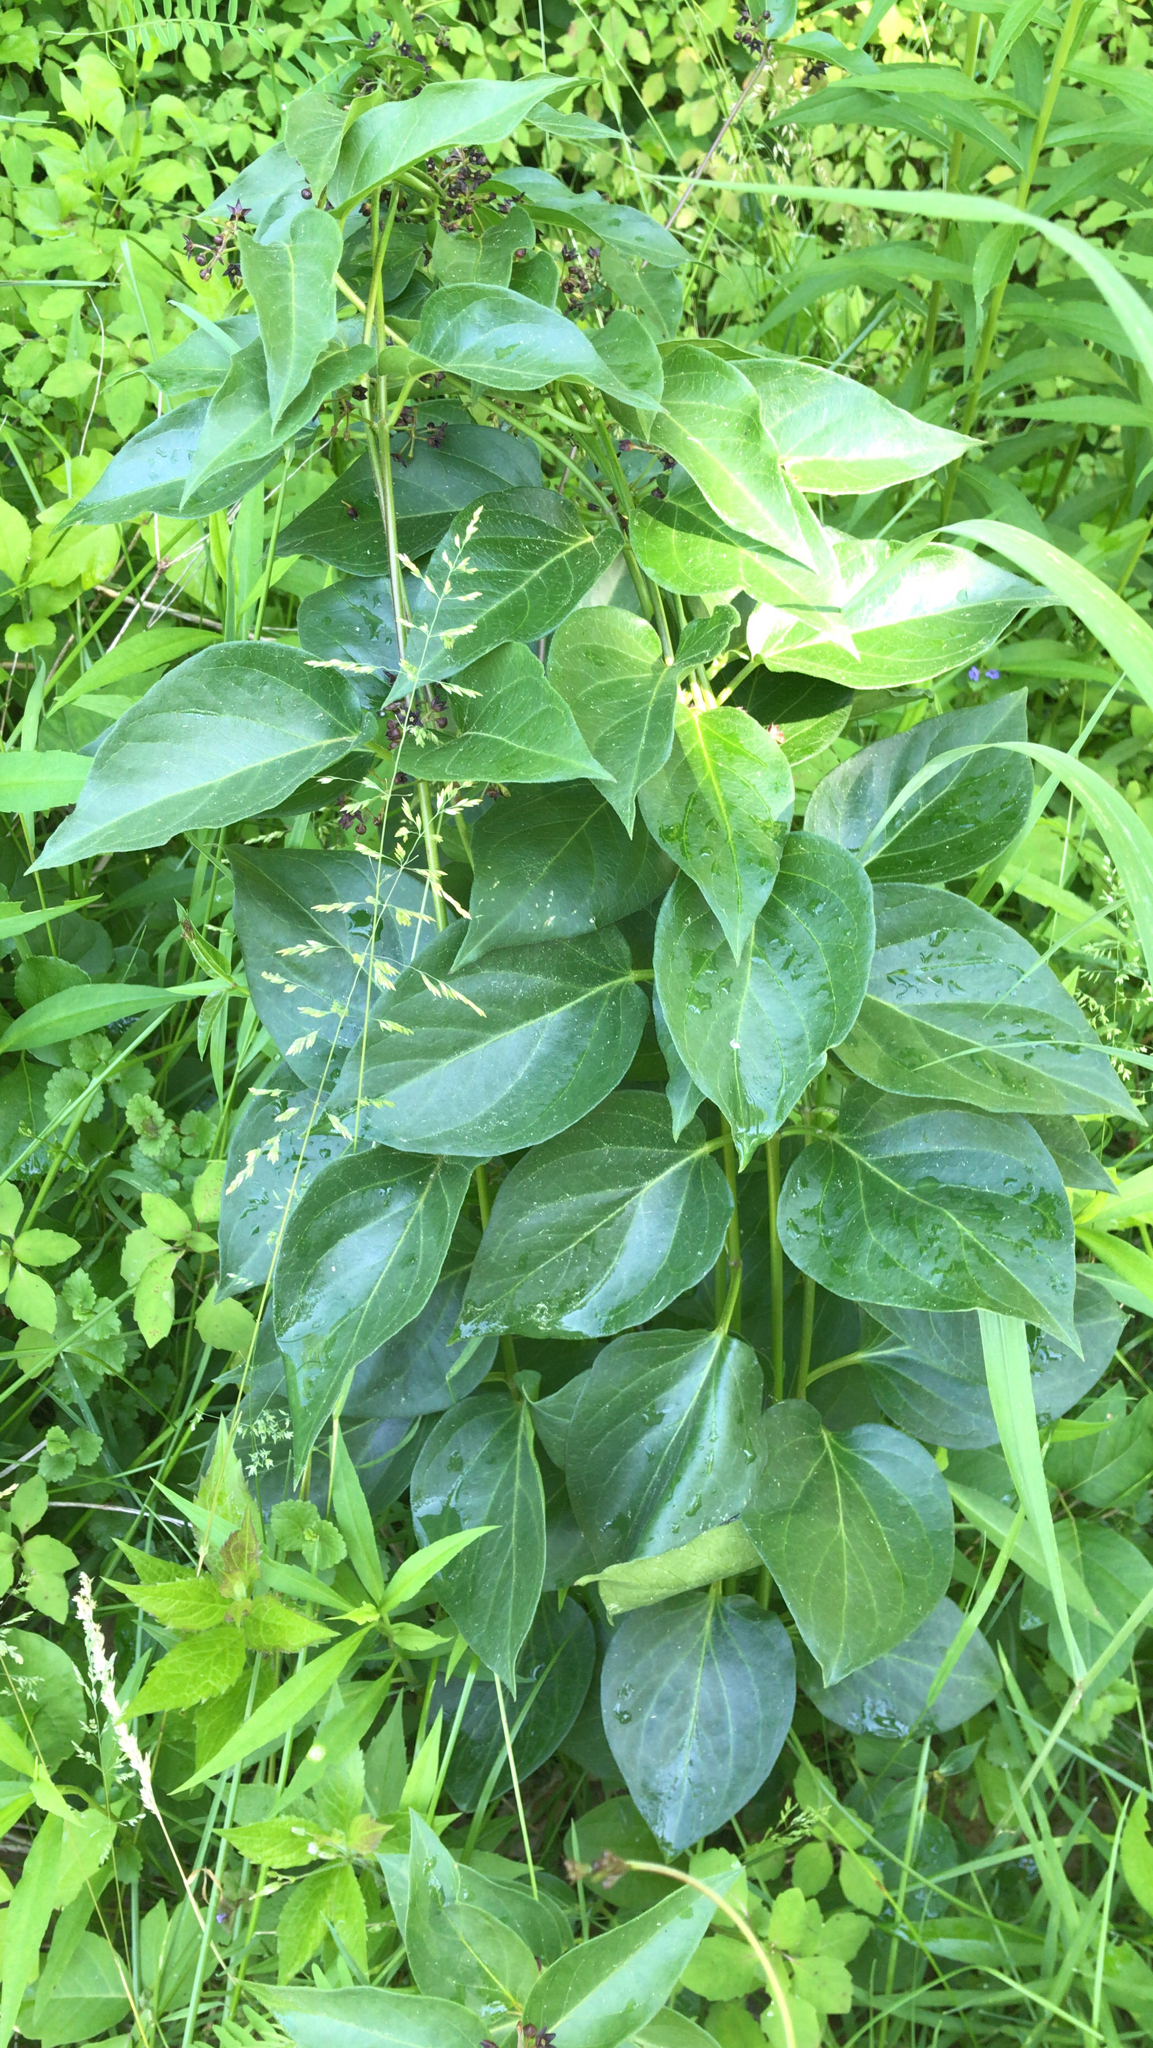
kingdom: Plantae
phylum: Tracheophyta
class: Magnoliopsida
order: Gentianales
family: Apocynaceae
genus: Vincetoxicum
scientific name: Vincetoxicum nigrum
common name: Black swallow-wort
